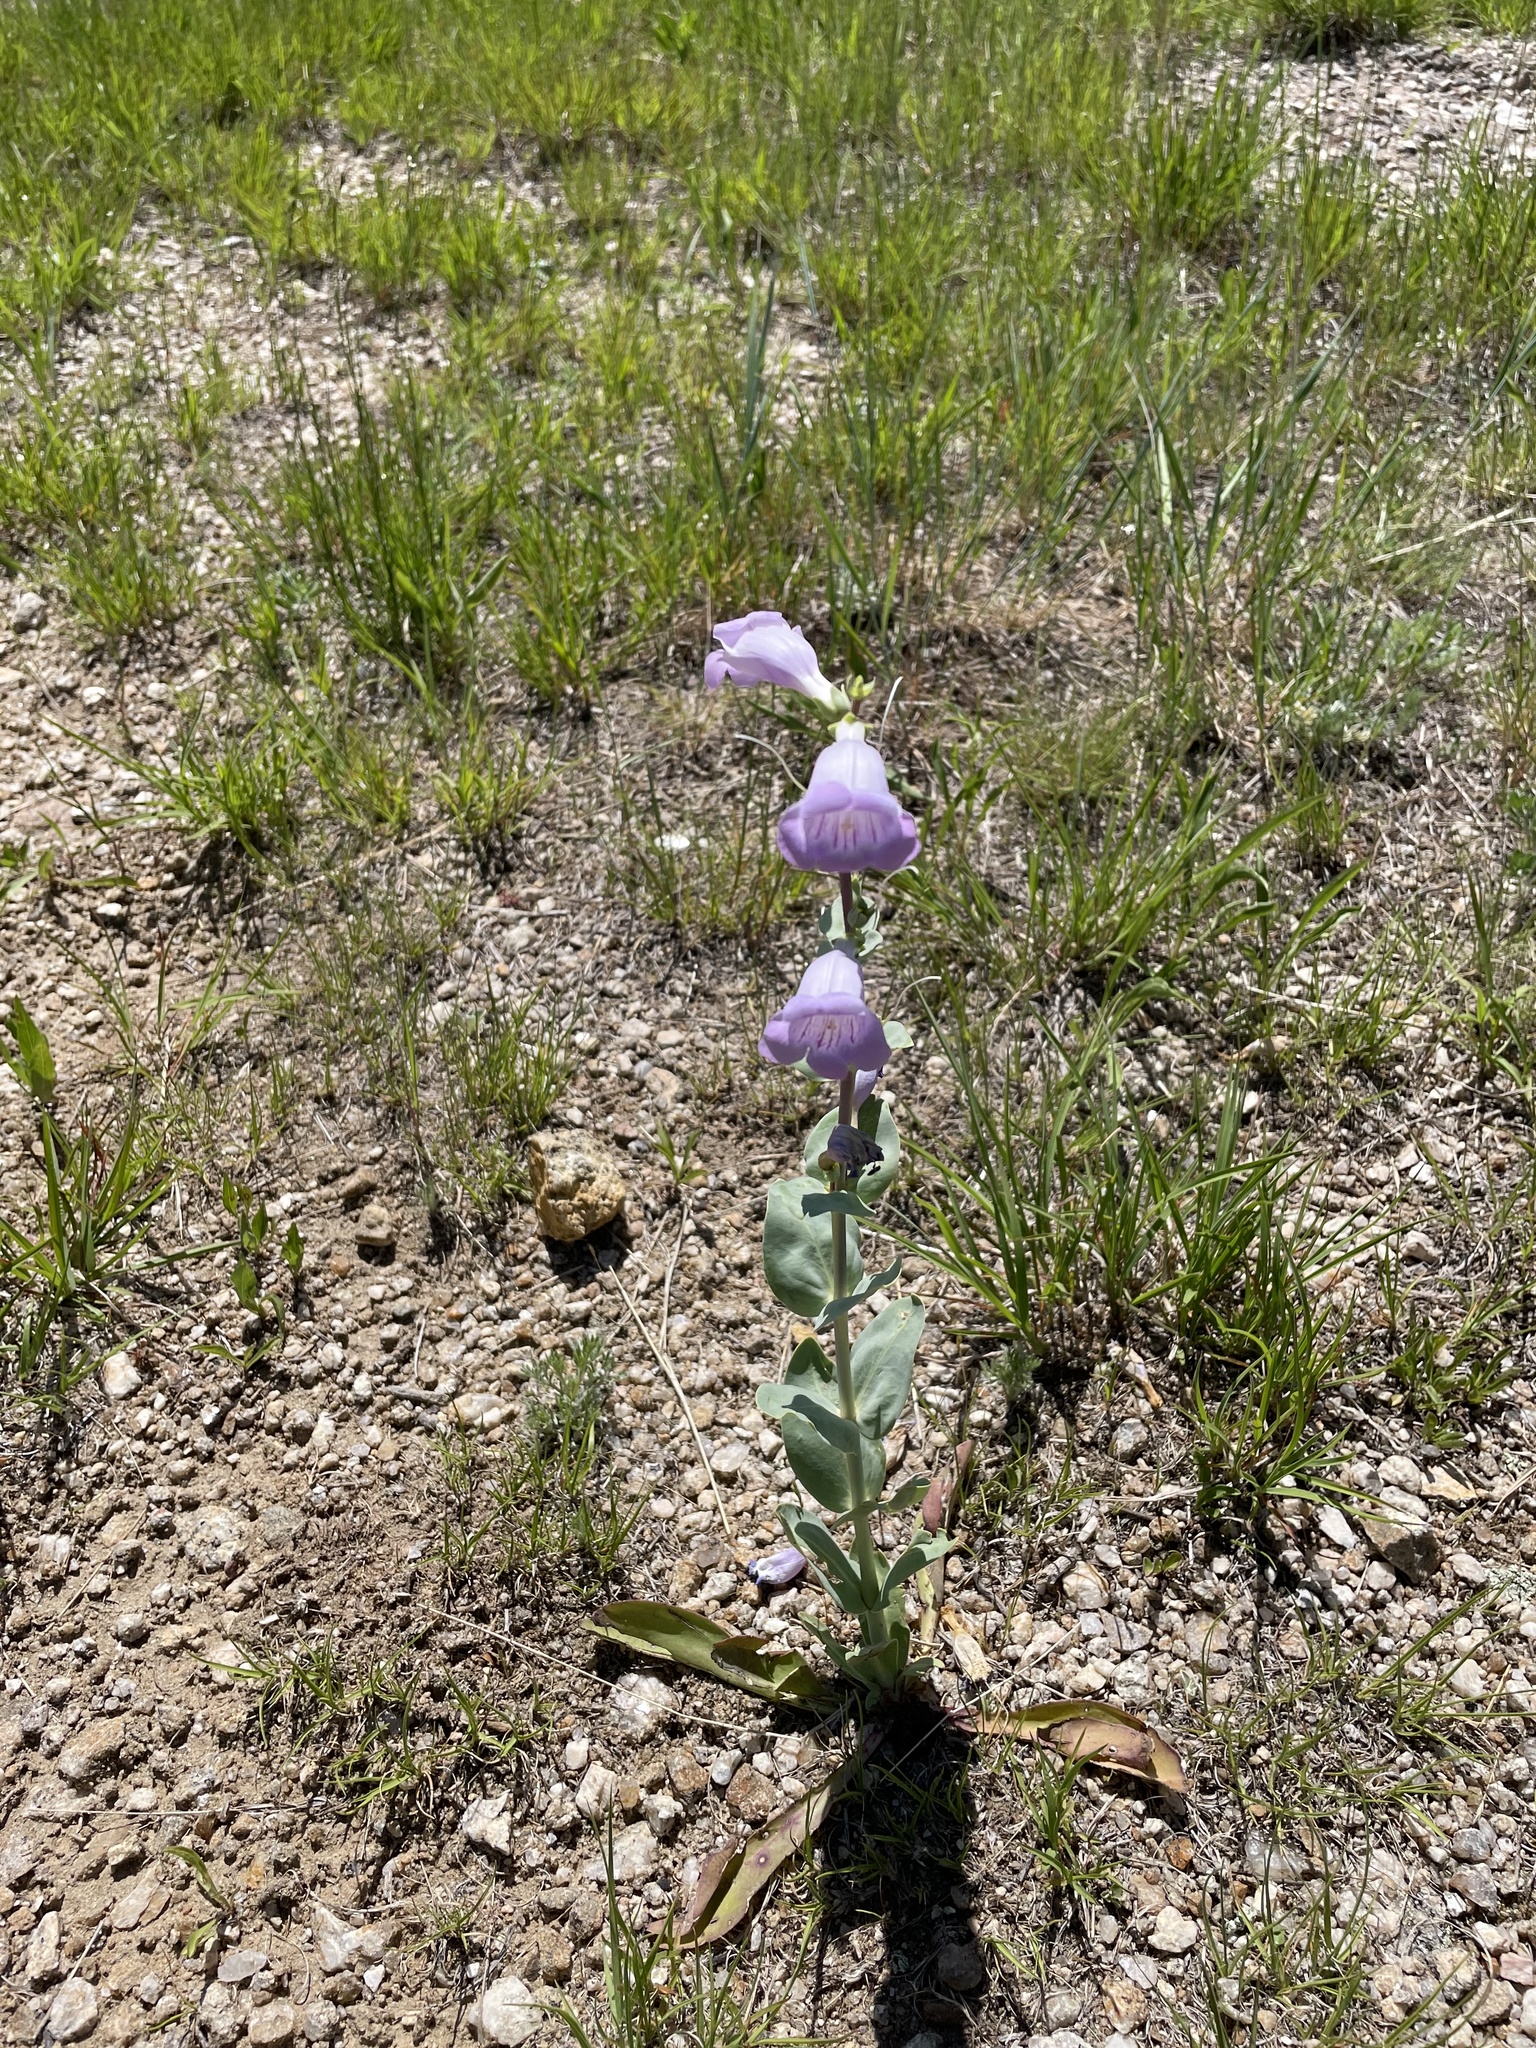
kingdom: Plantae
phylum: Tracheophyta
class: Magnoliopsida
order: Lamiales
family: Plantaginaceae
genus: Penstemon
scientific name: Penstemon
